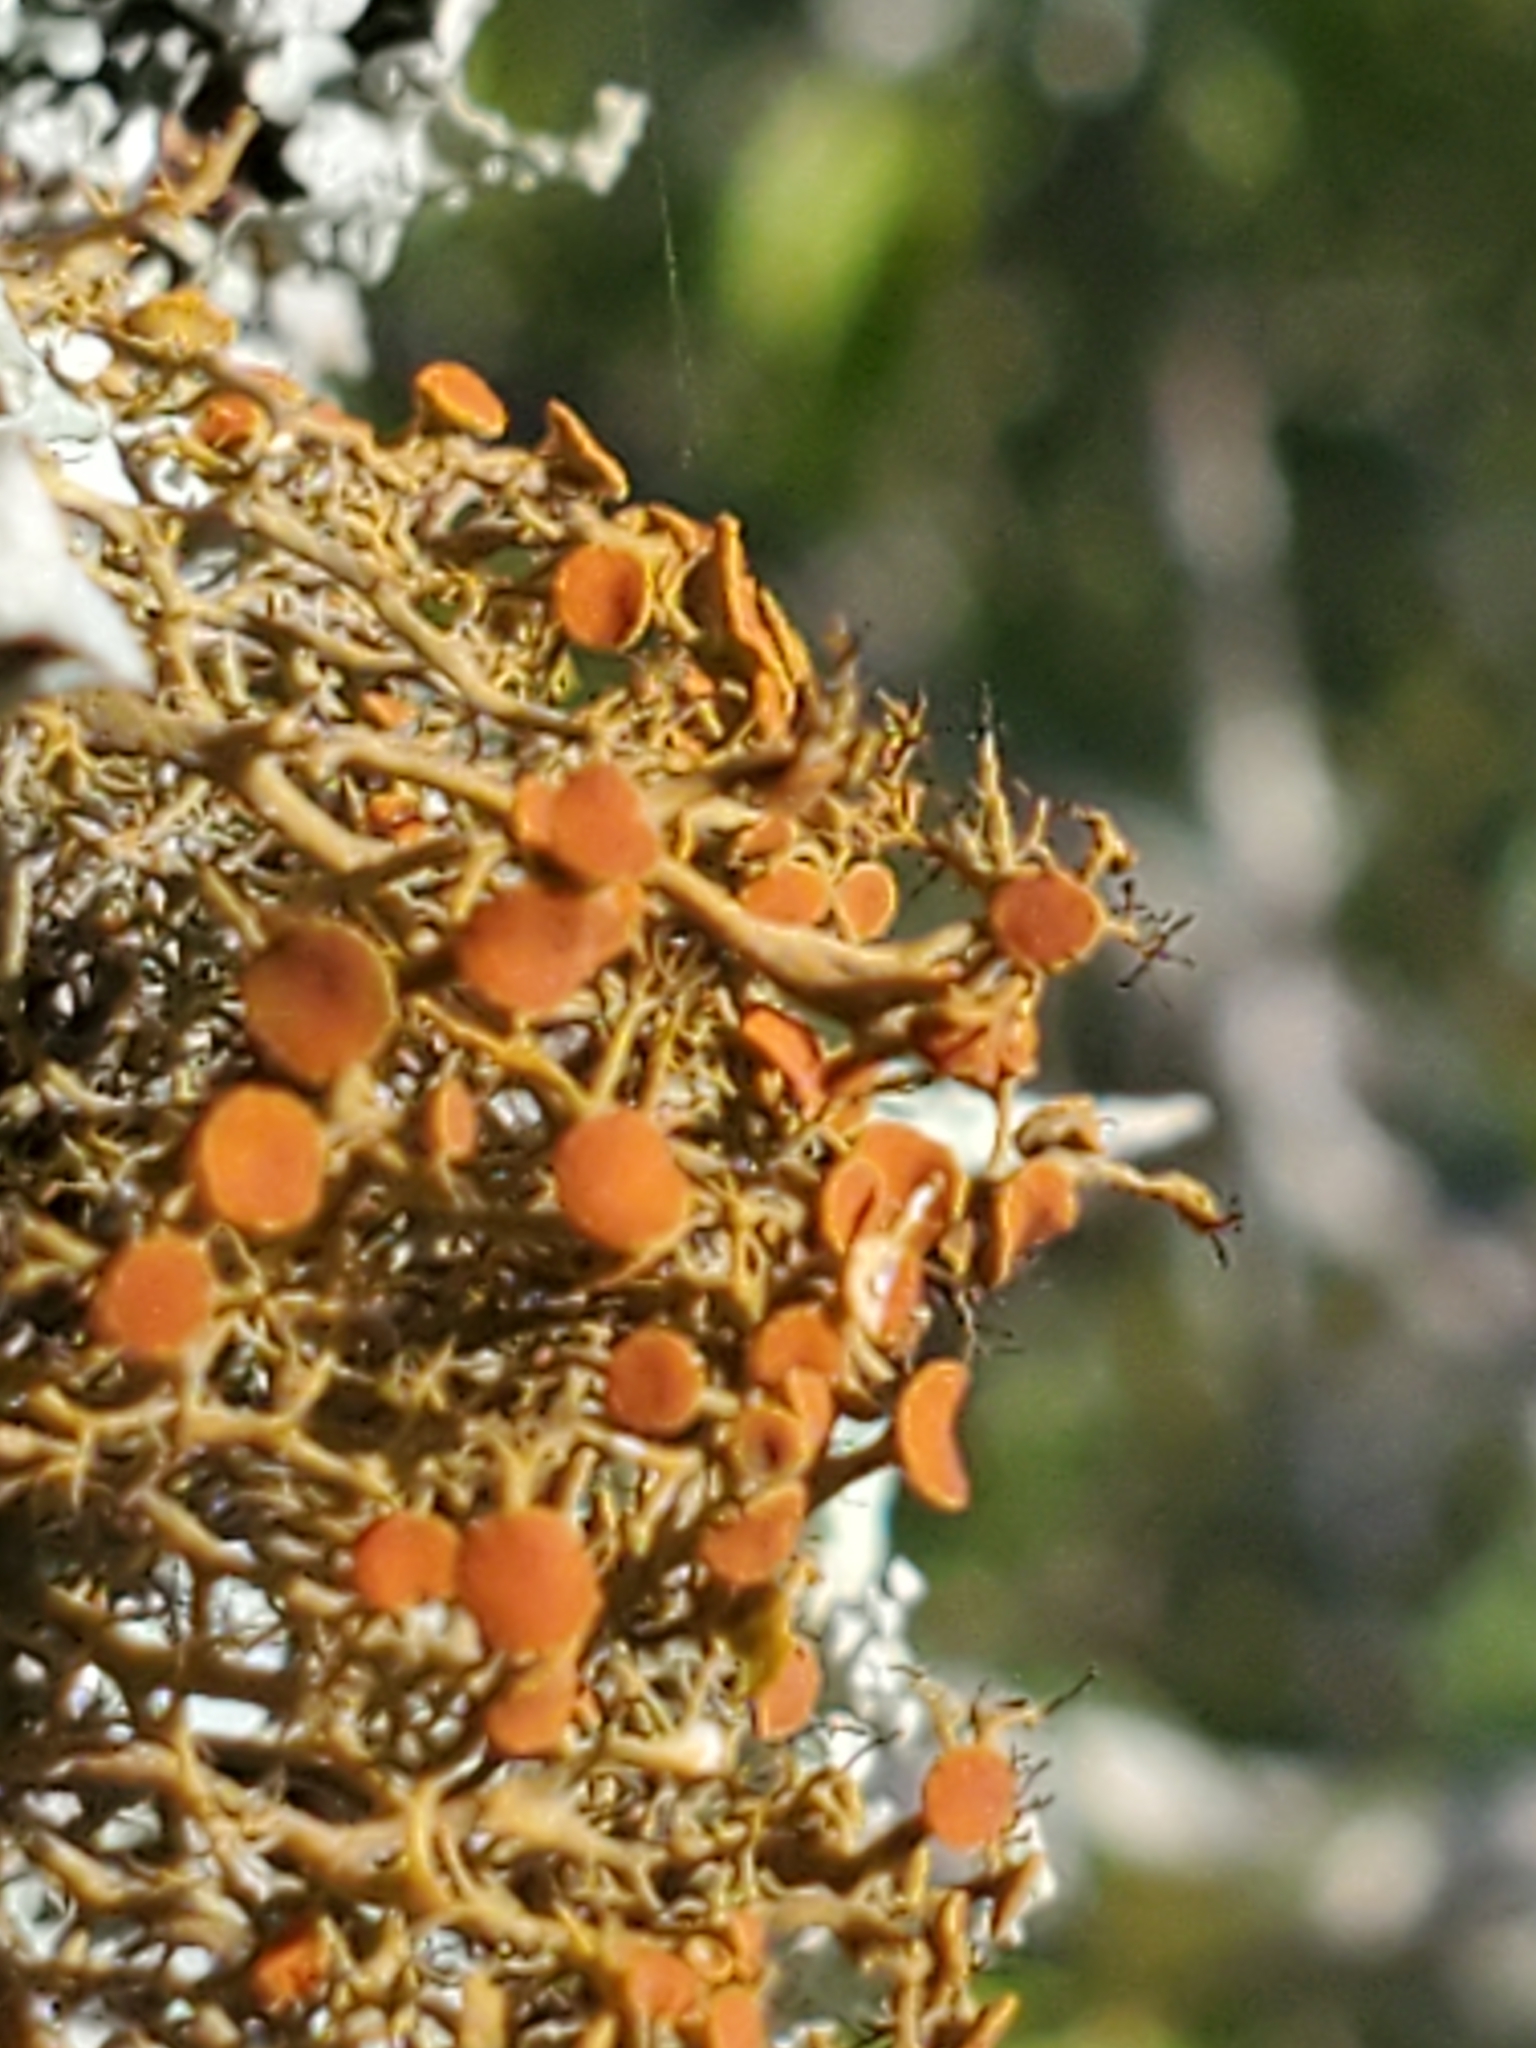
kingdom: Fungi
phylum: Ascomycota
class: Lecanoromycetes
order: Teloschistales
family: Teloschistaceae
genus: Teloschistes
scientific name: Teloschistes exilis
